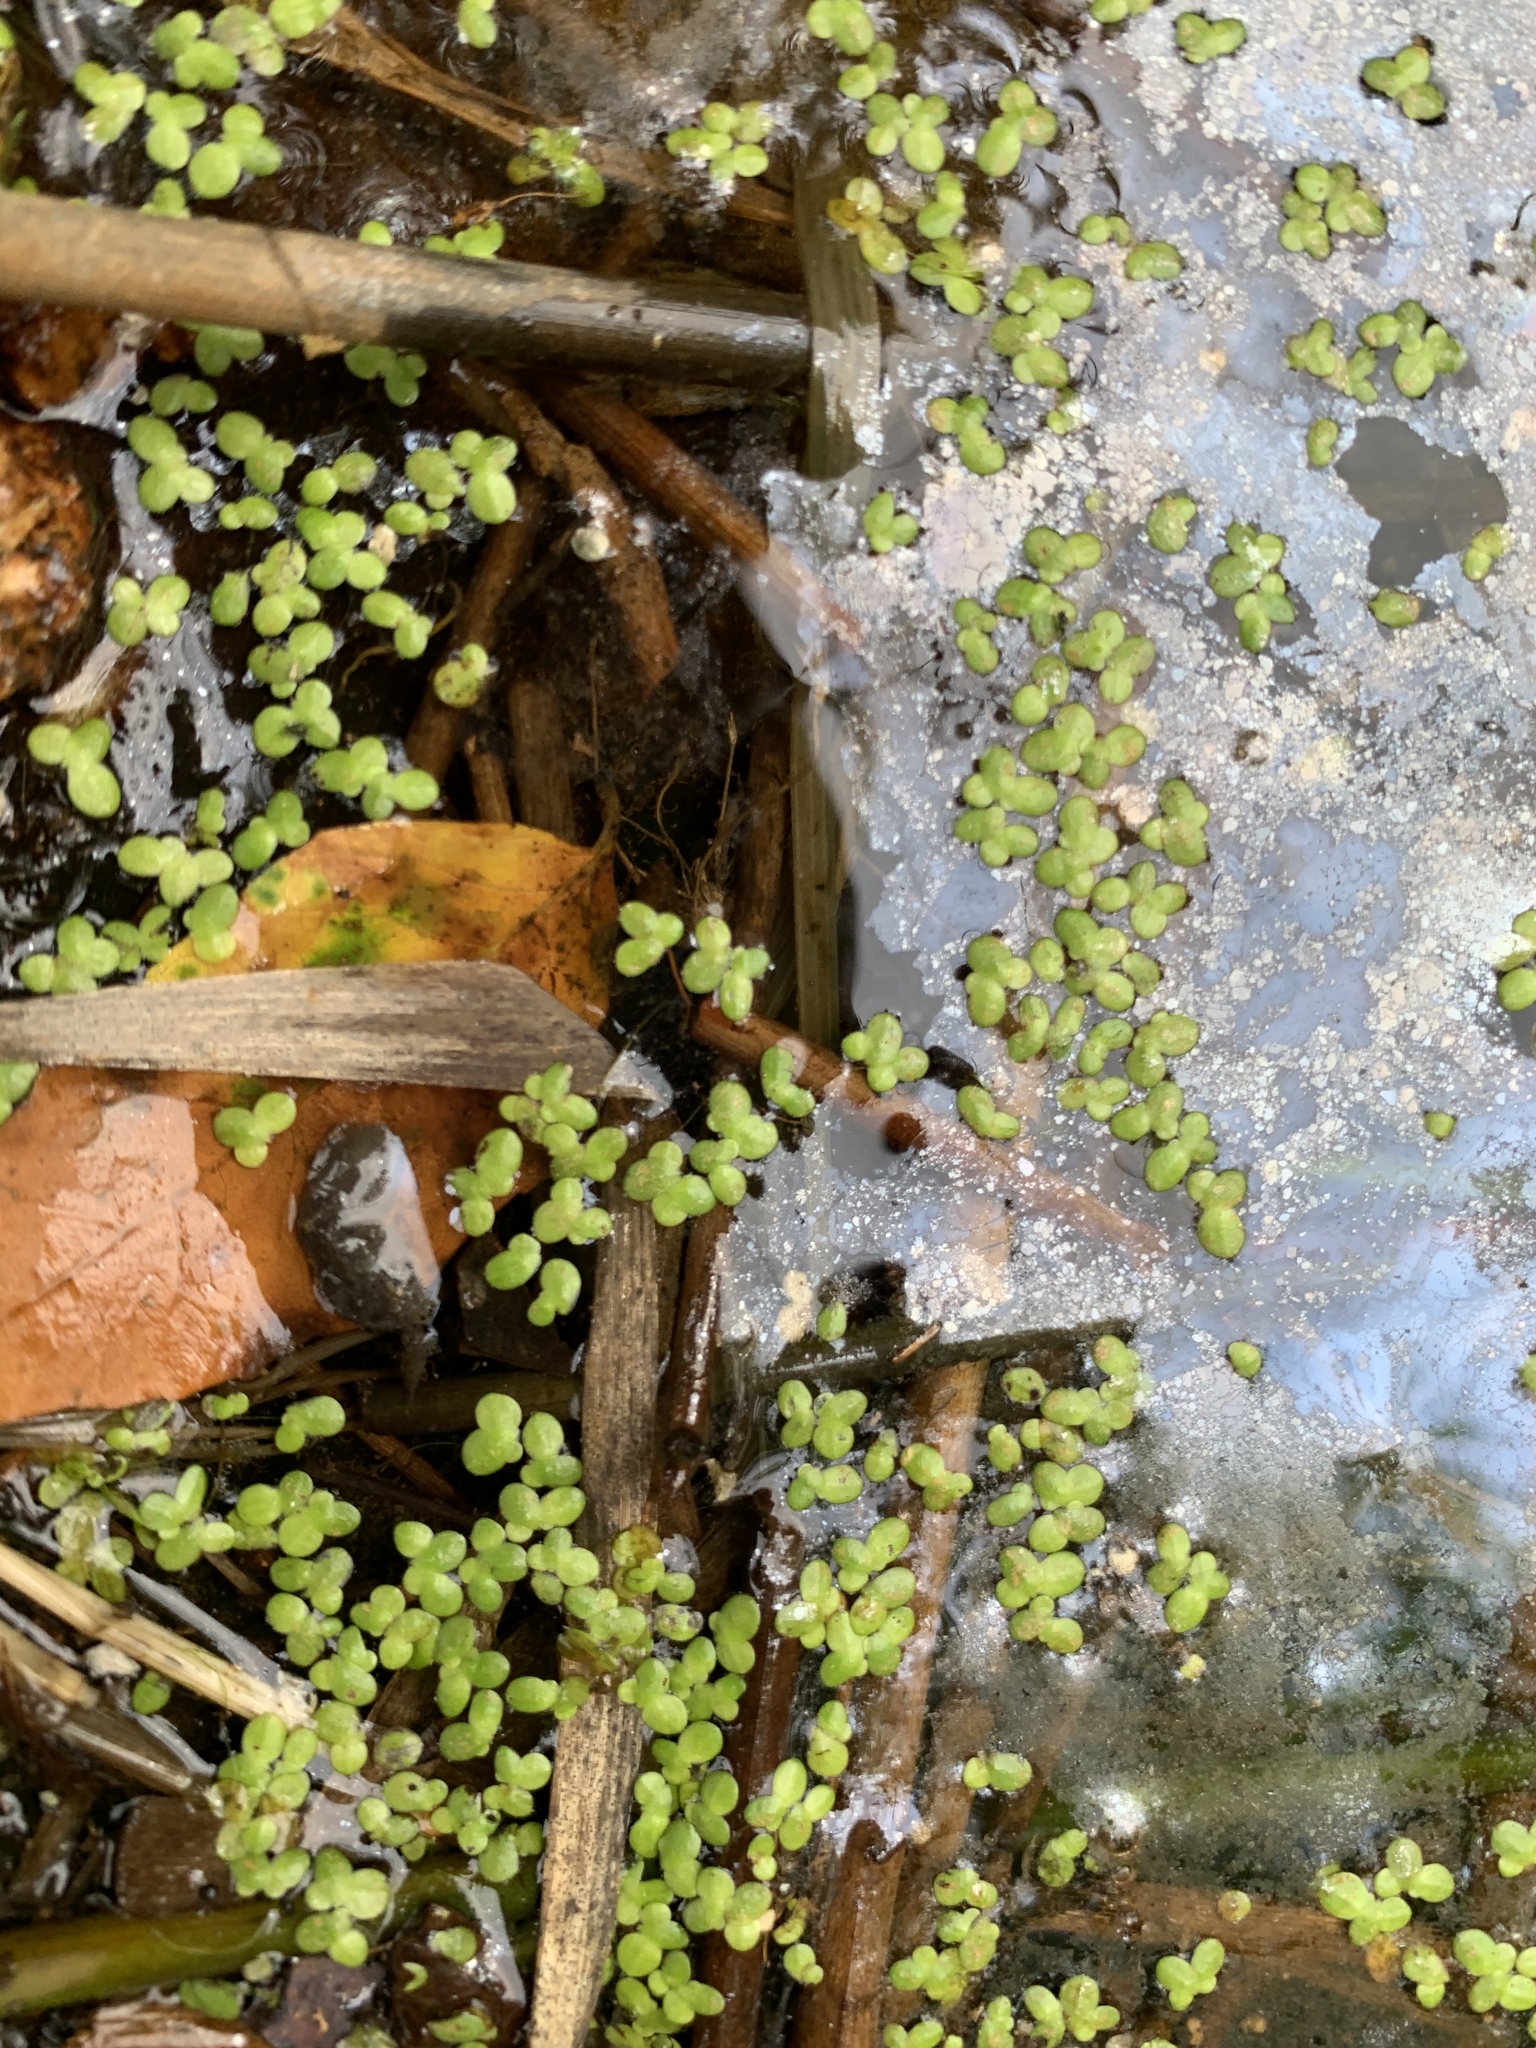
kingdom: Plantae
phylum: Tracheophyta
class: Liliopsida
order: Alismatales
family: Araceae
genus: Lemna
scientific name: Lemna minor
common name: Common duckweed
